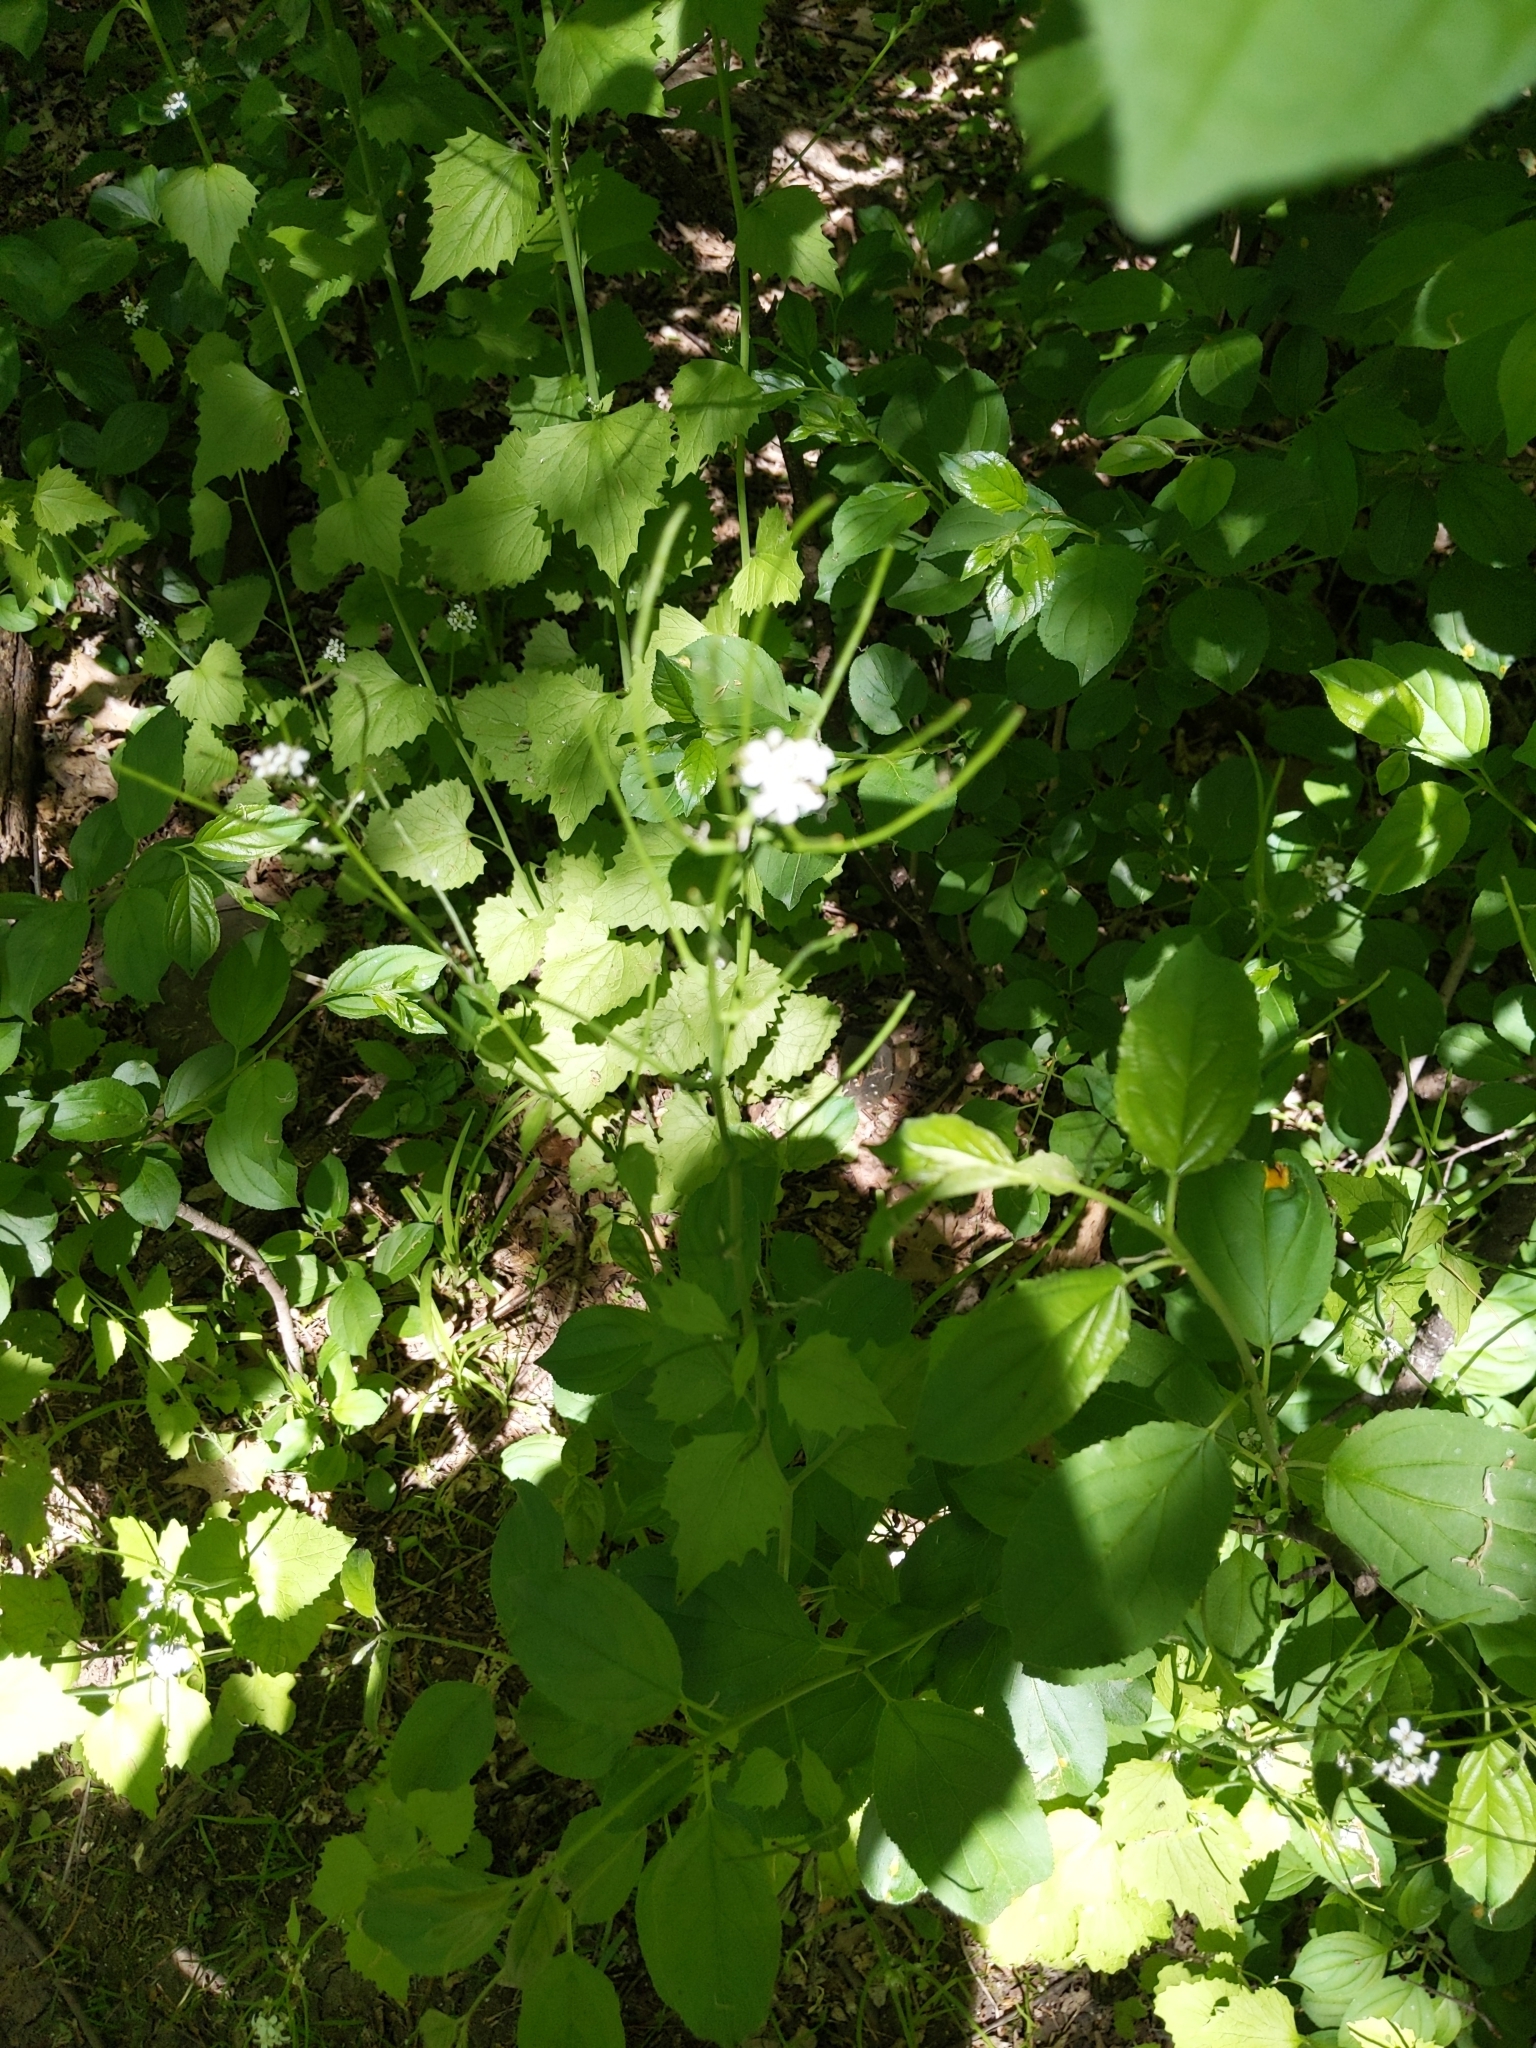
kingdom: Plantae
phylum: Tracheophyta
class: Magnoliopsida
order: Brassicales
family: Brassicaceae
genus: Alliaria
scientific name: Alliaria petiolata
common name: Garlic mustard
